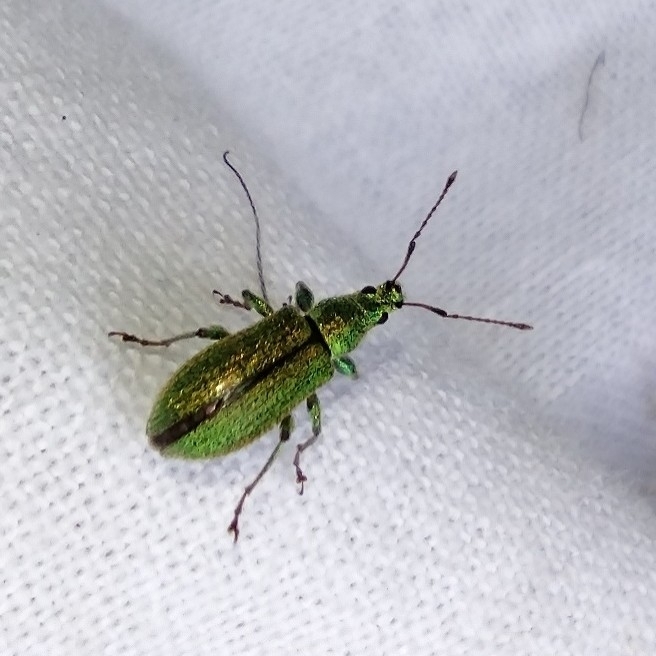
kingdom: Animalia
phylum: Arthropoda
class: Insecta
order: Coleoptera
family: Curculionidae
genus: Phyllobius
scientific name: Phyllobius arborator
